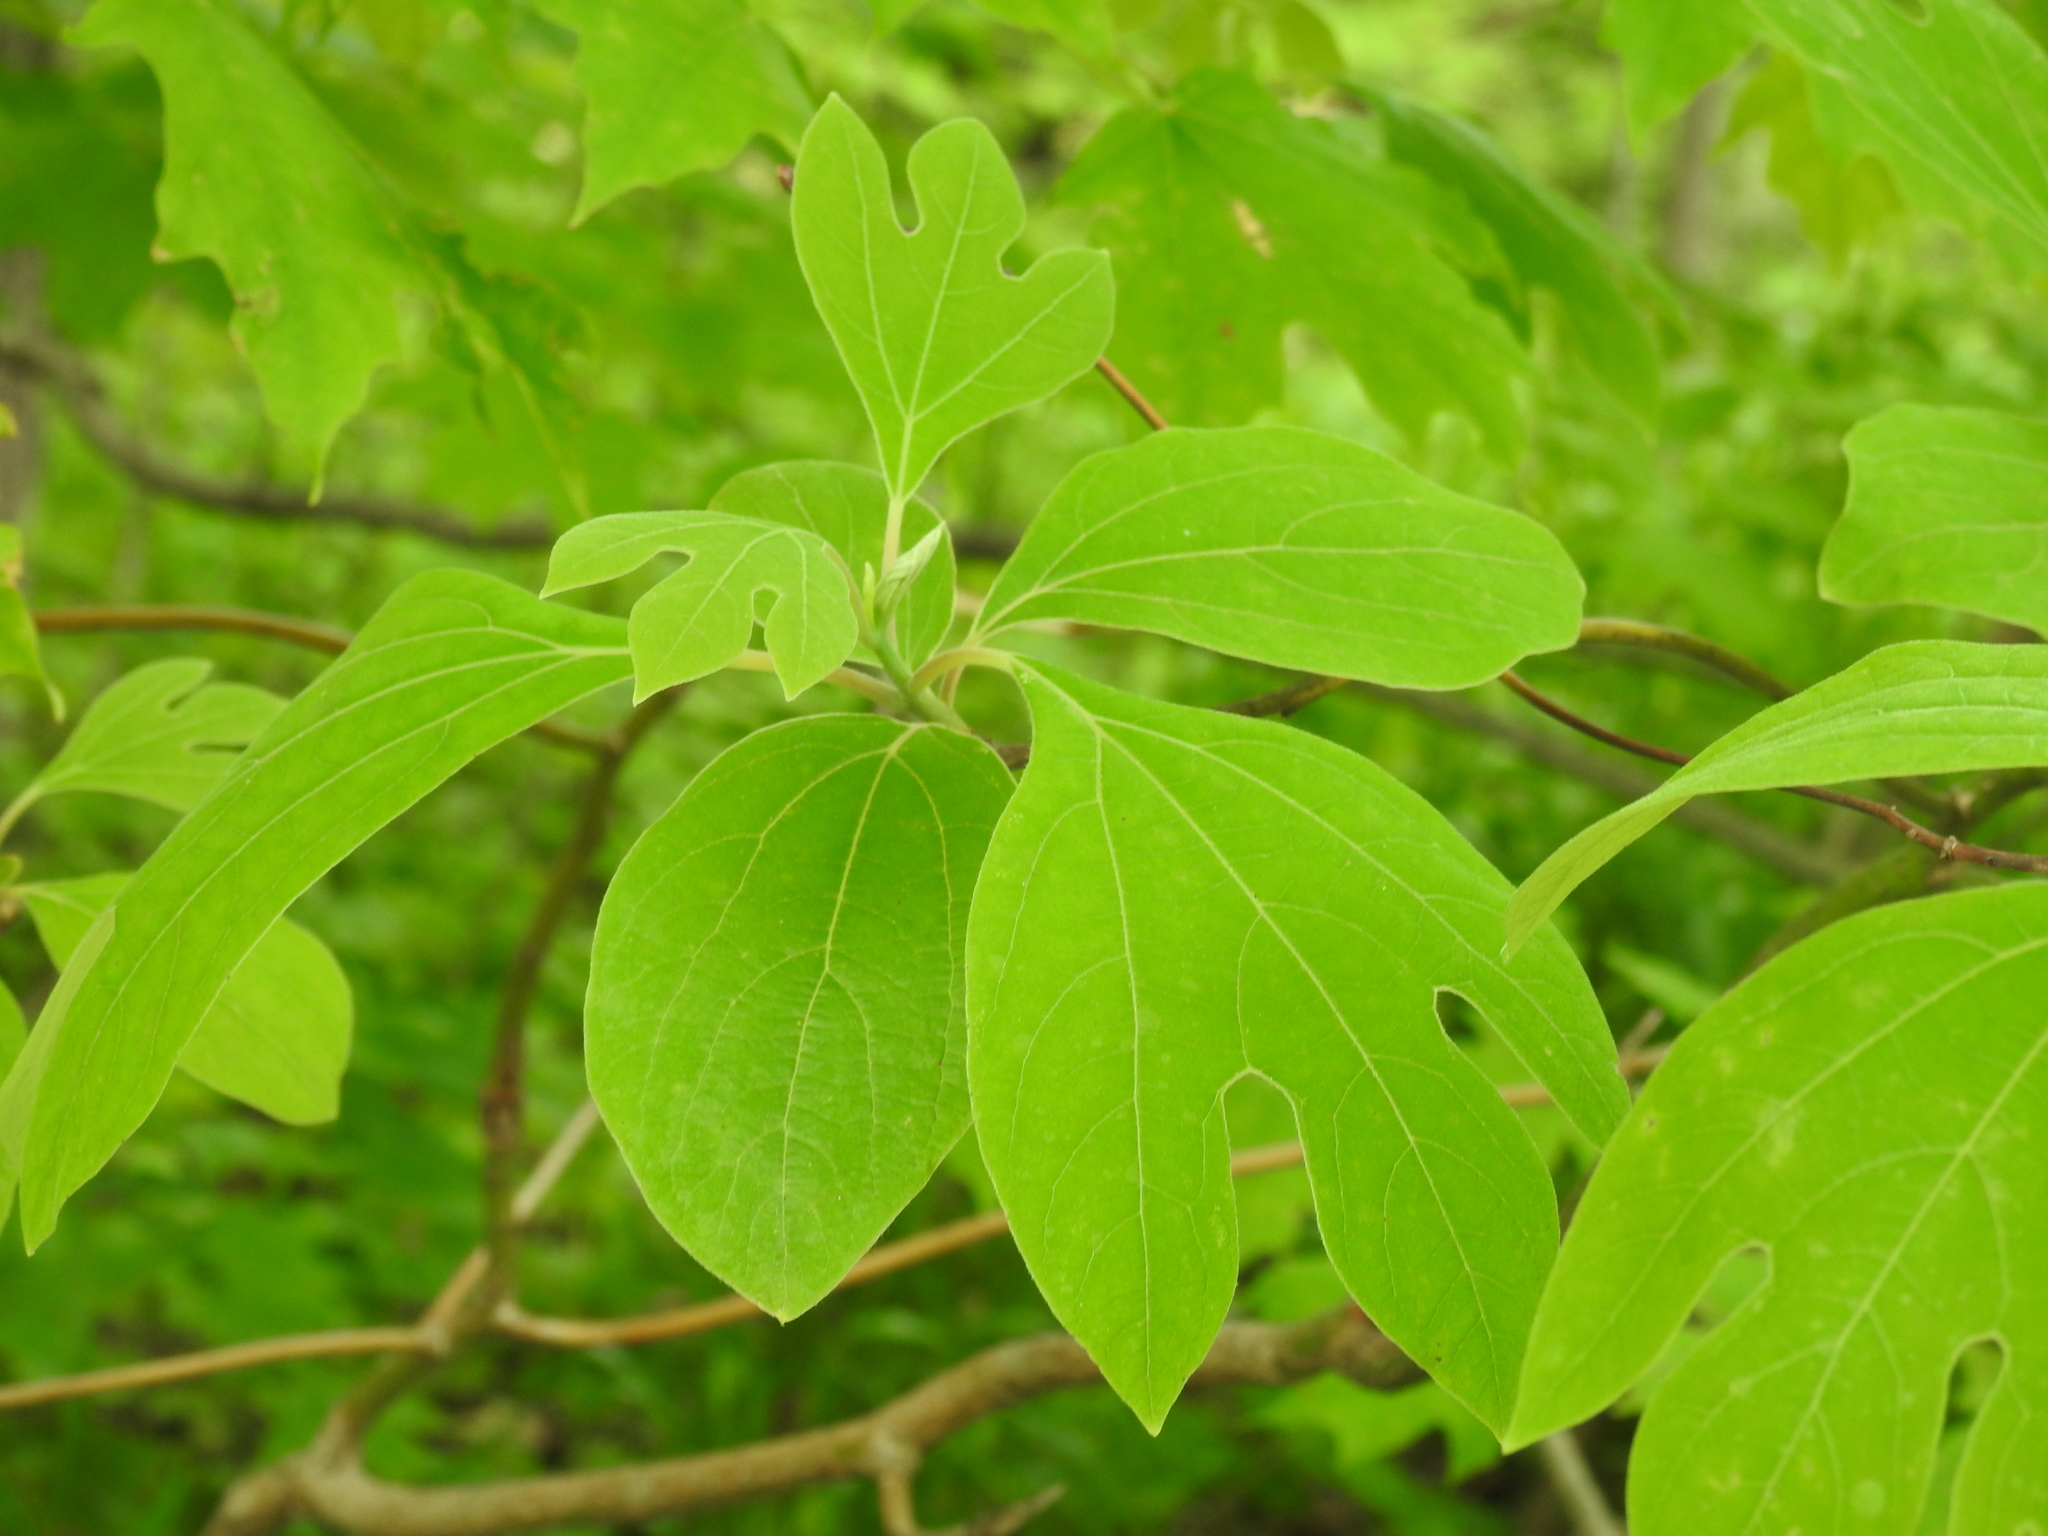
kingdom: Plantae
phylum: Tracheophyta
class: Magnoliopsida
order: Laurales
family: Lauraceae
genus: Sassafras
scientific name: Sassafras albidum
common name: Sassafras
